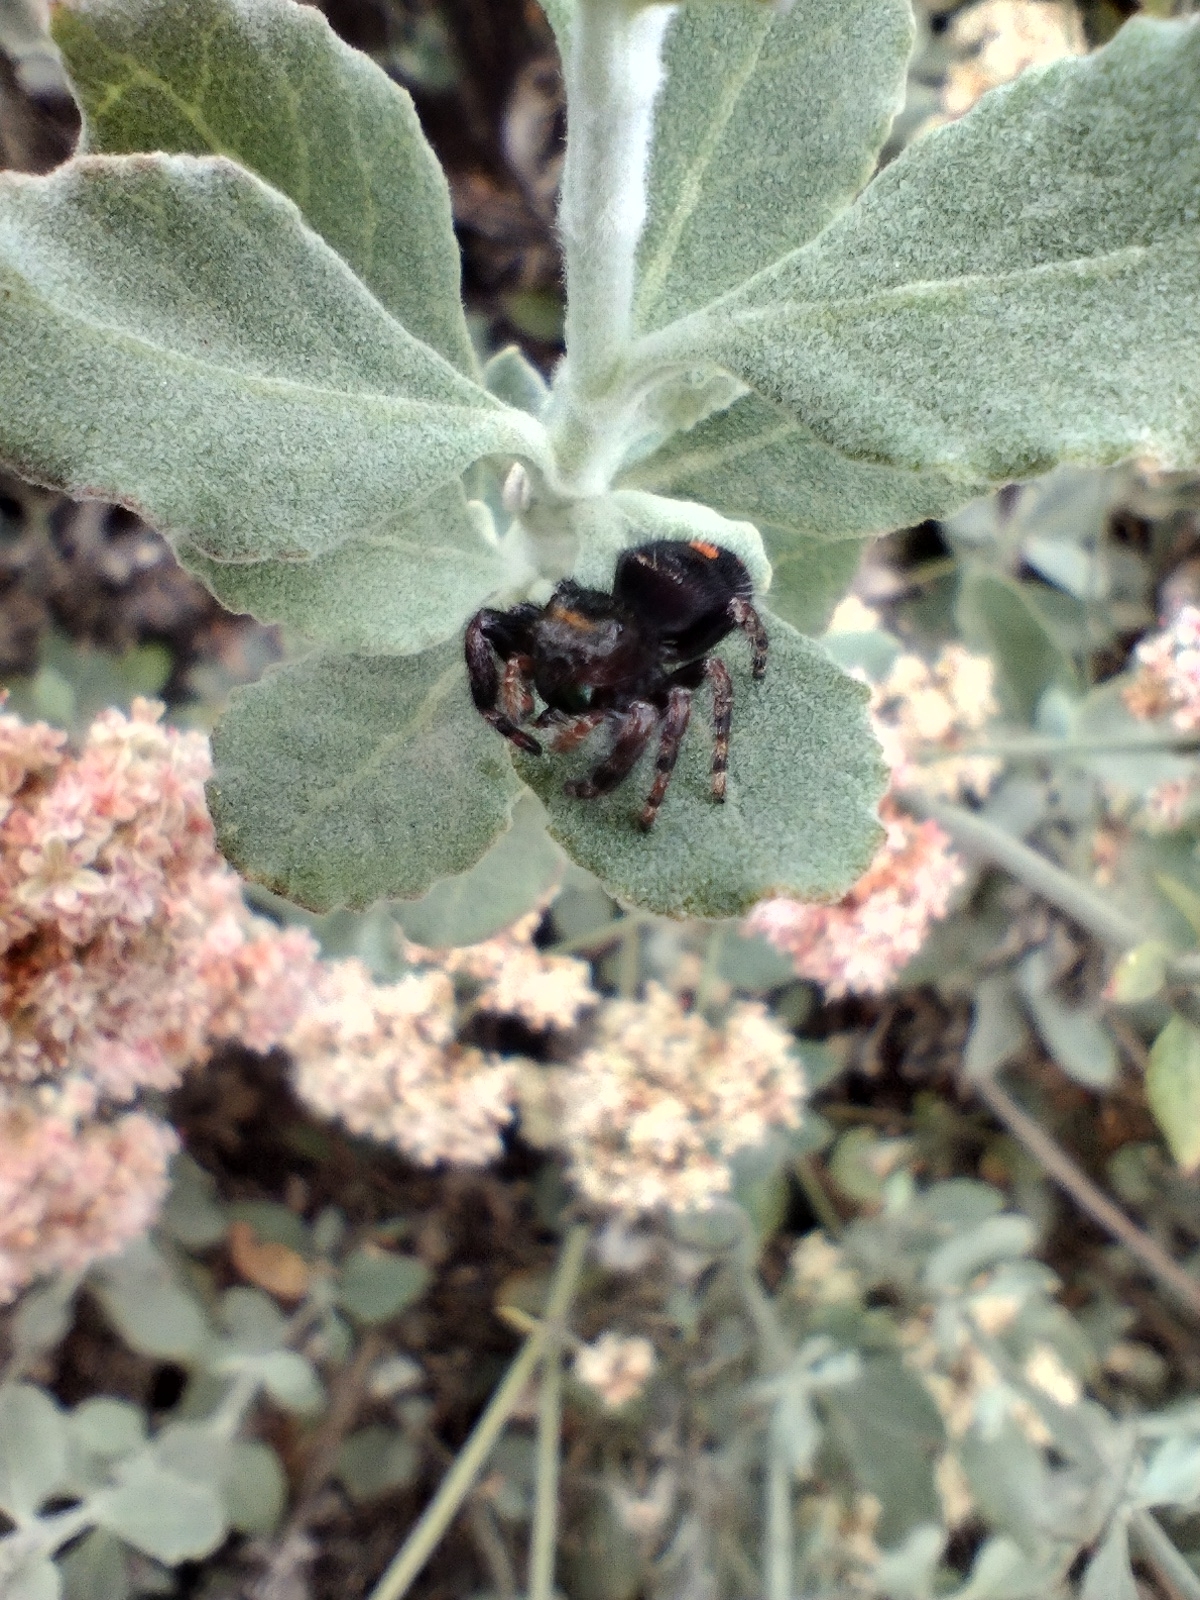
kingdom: Animalia
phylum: Arthropoda
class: Arachnida
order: Araneae
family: Salticidae
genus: Phidippus
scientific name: Phidippus audax
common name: Bold jumper
